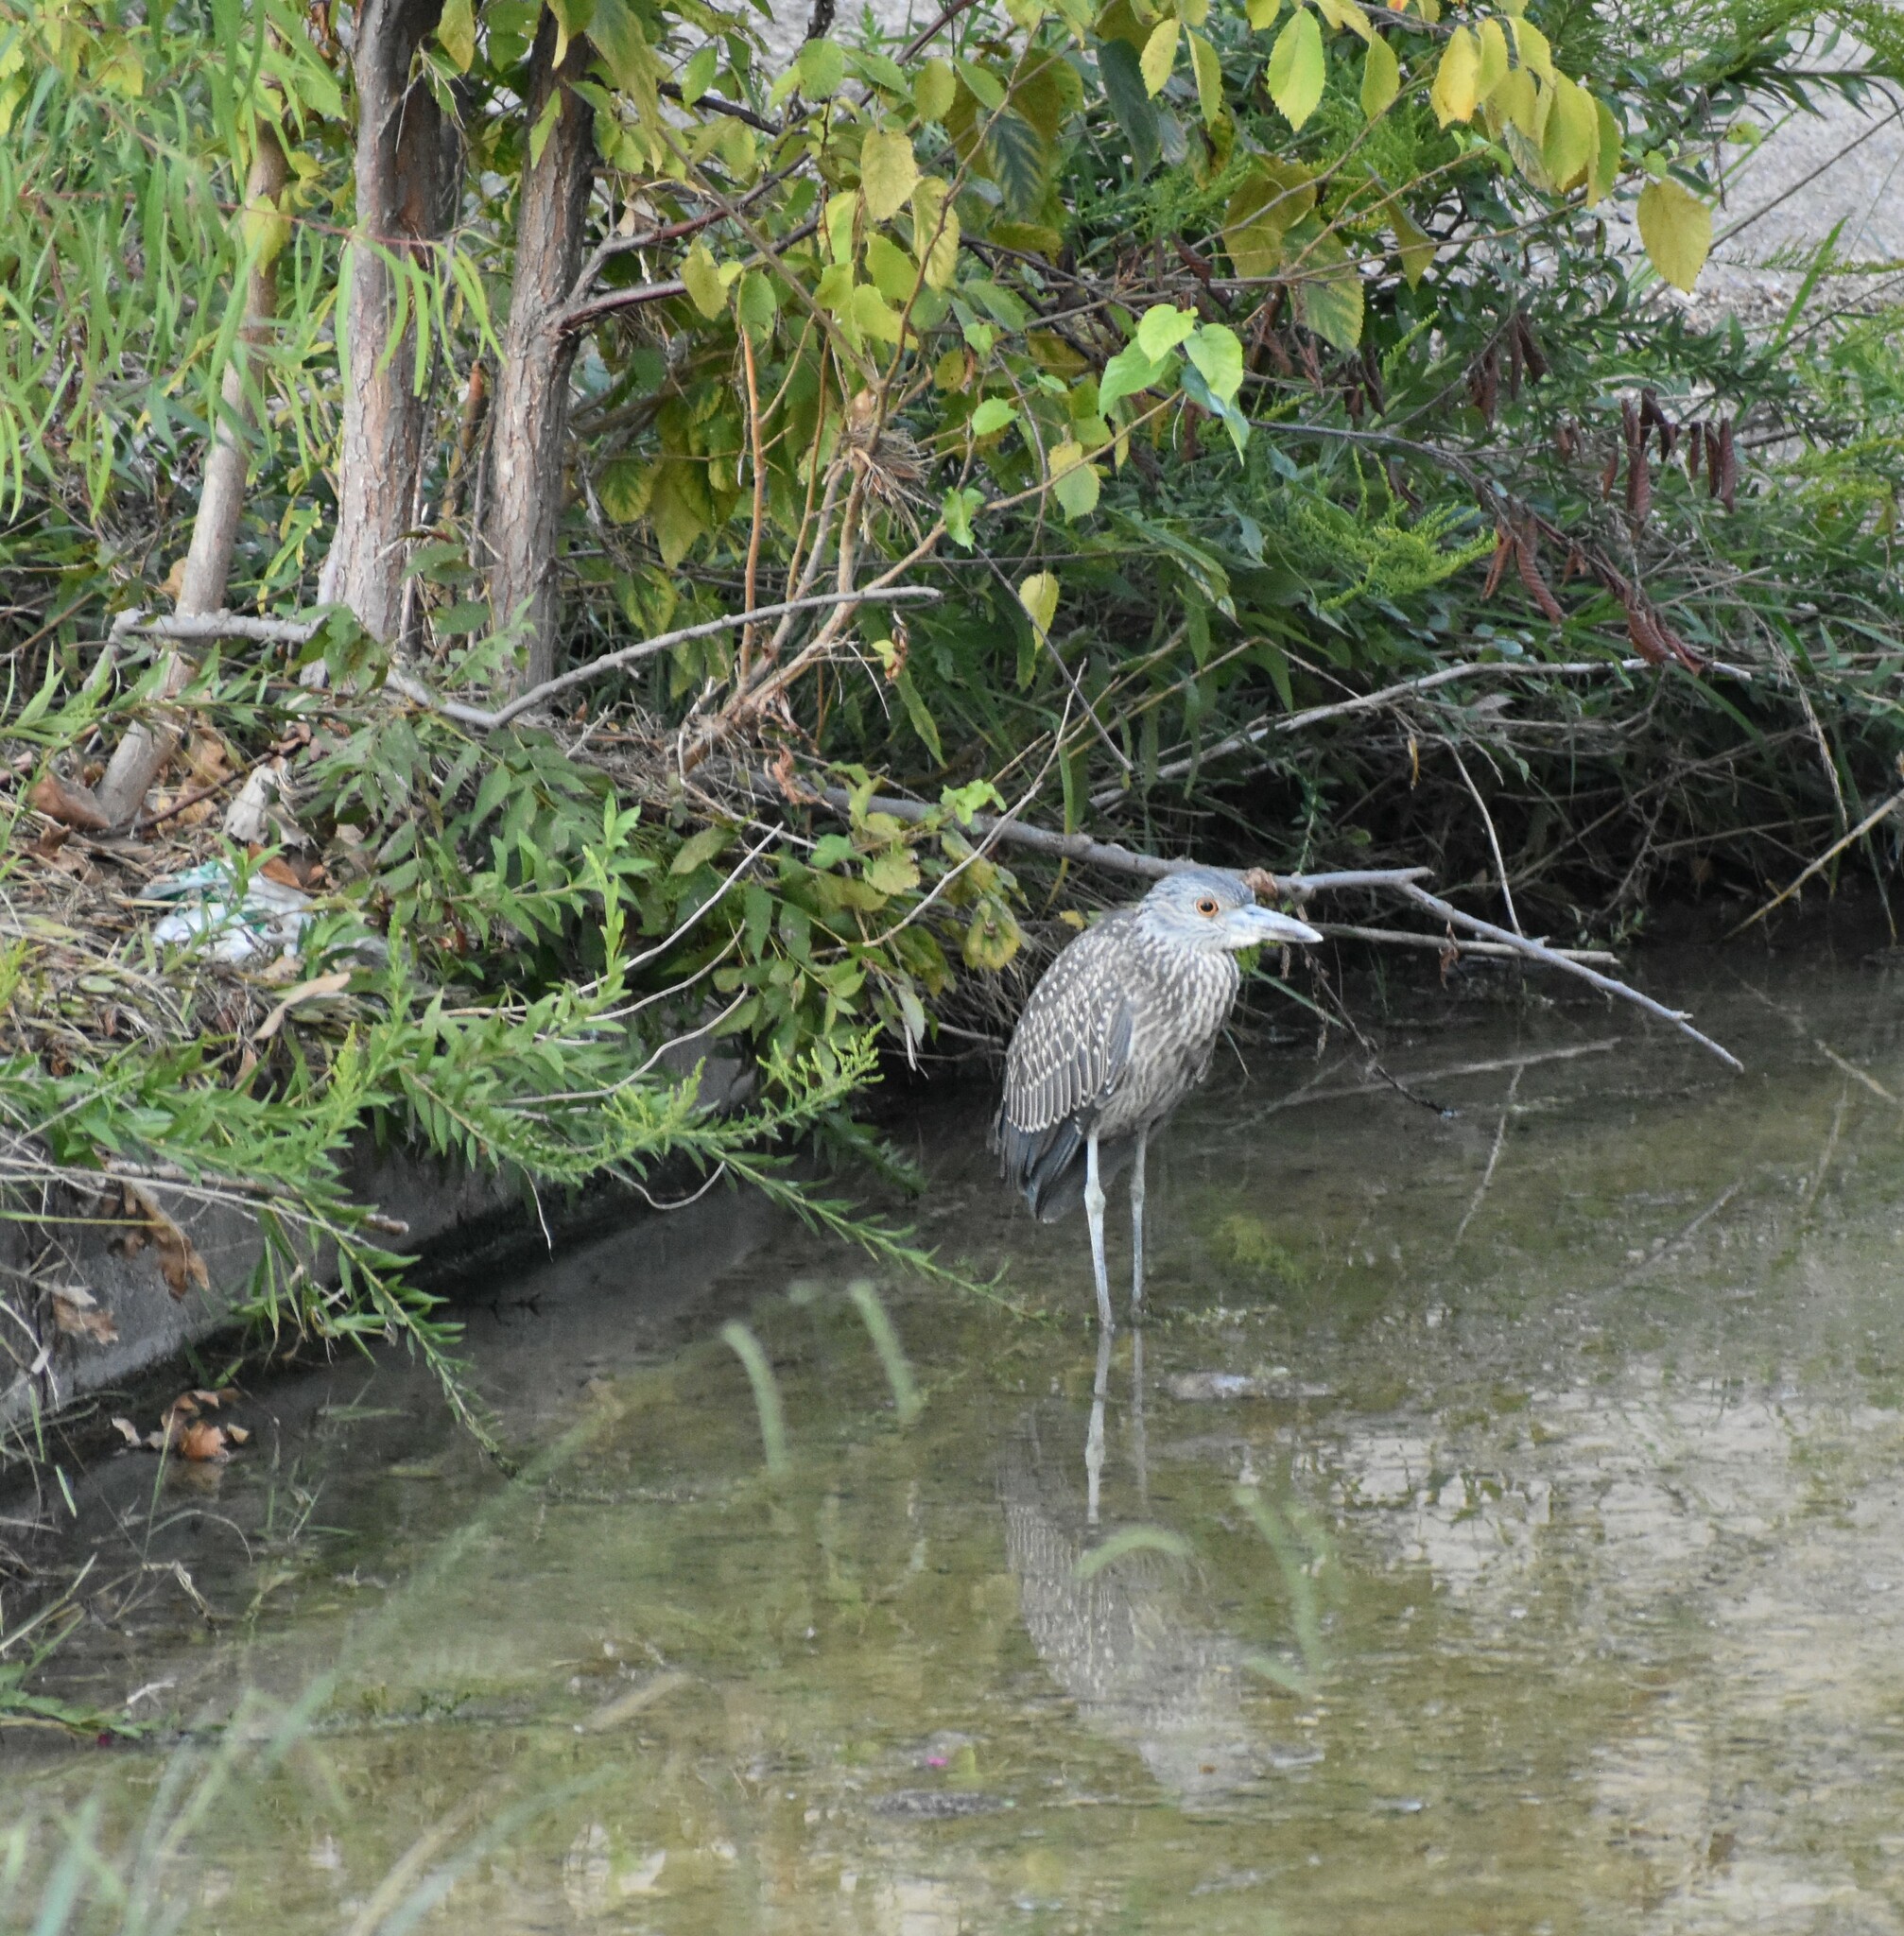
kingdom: Animalia
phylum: Chordata
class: Aves
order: Pelecaniformes
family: Ardeidae
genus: Nyctanassa
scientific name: Nyctanassa violacea
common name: Yellow-crowned night heron
